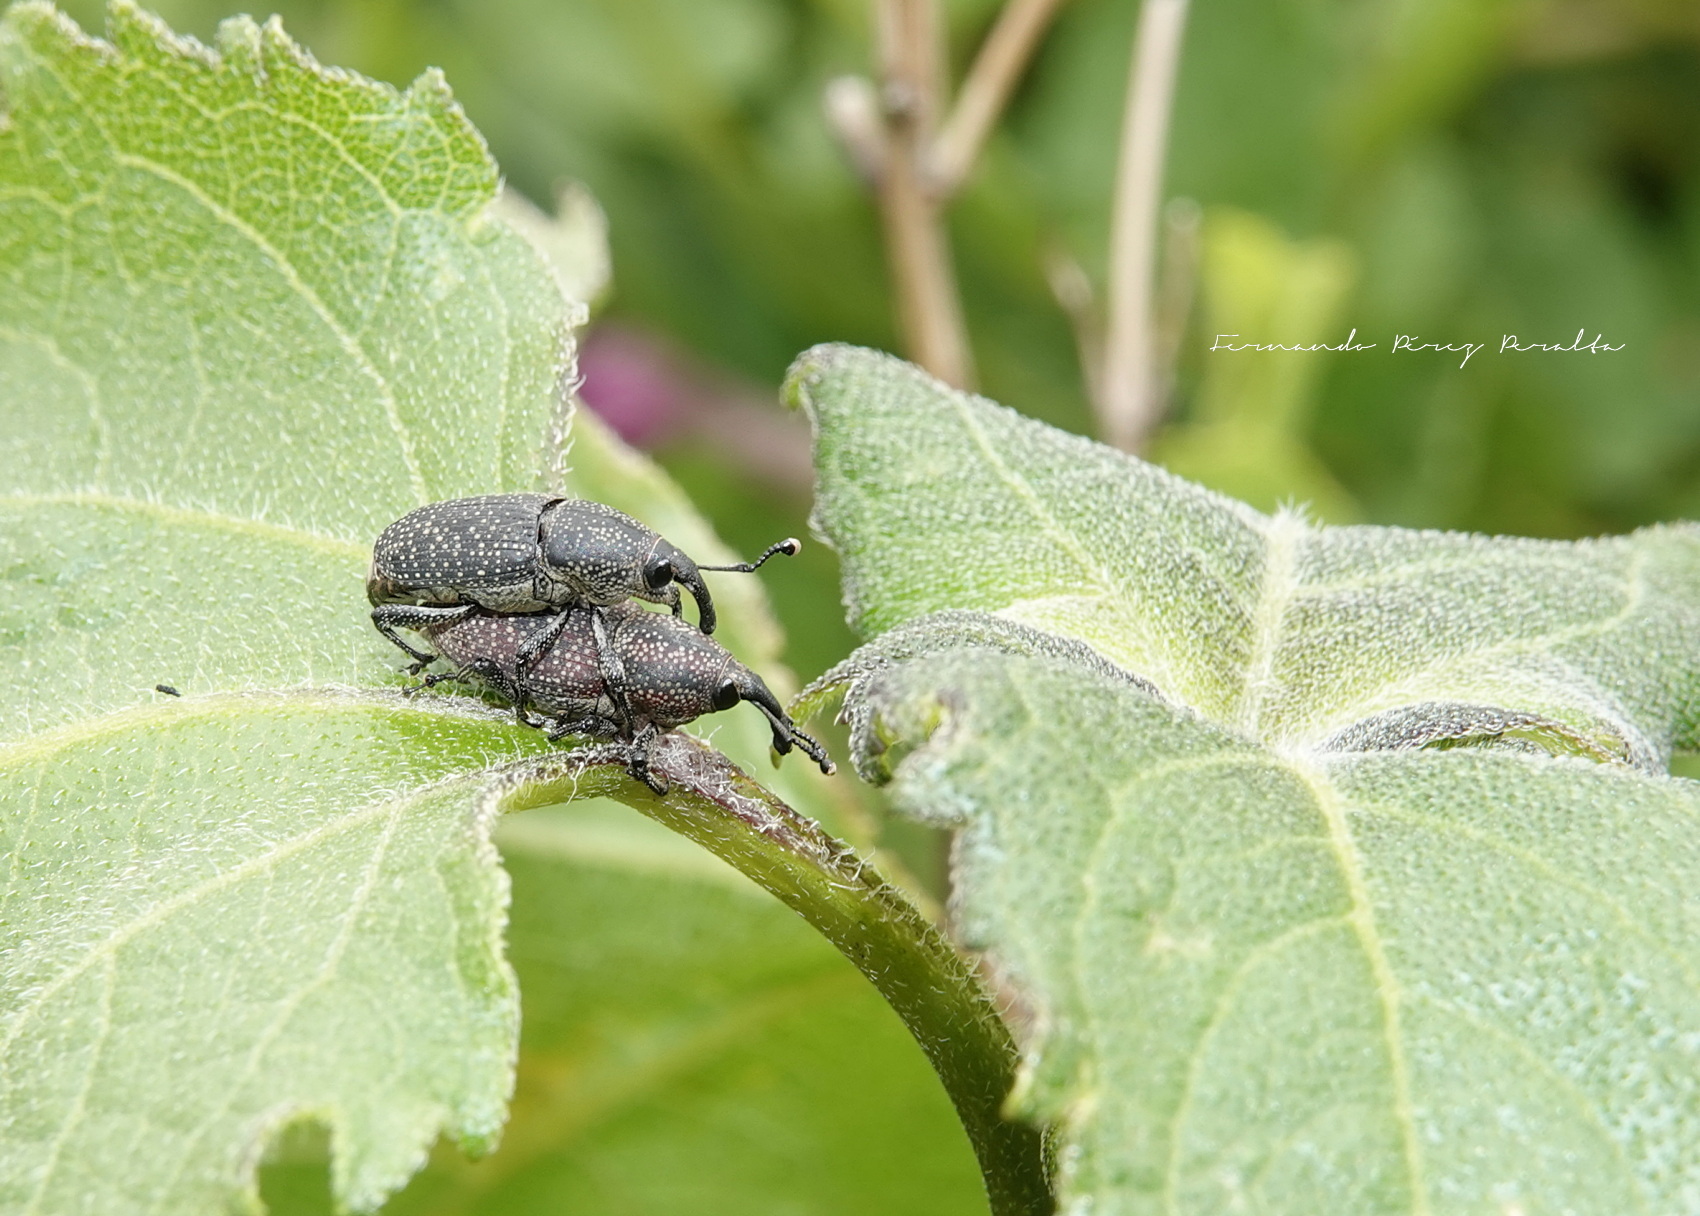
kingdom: Animalia
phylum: Arthropoda
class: Insecta
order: Coleoptera
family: Dryophthoridae
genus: Rhodobaenus
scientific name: Rhodobaenus pustulosus
